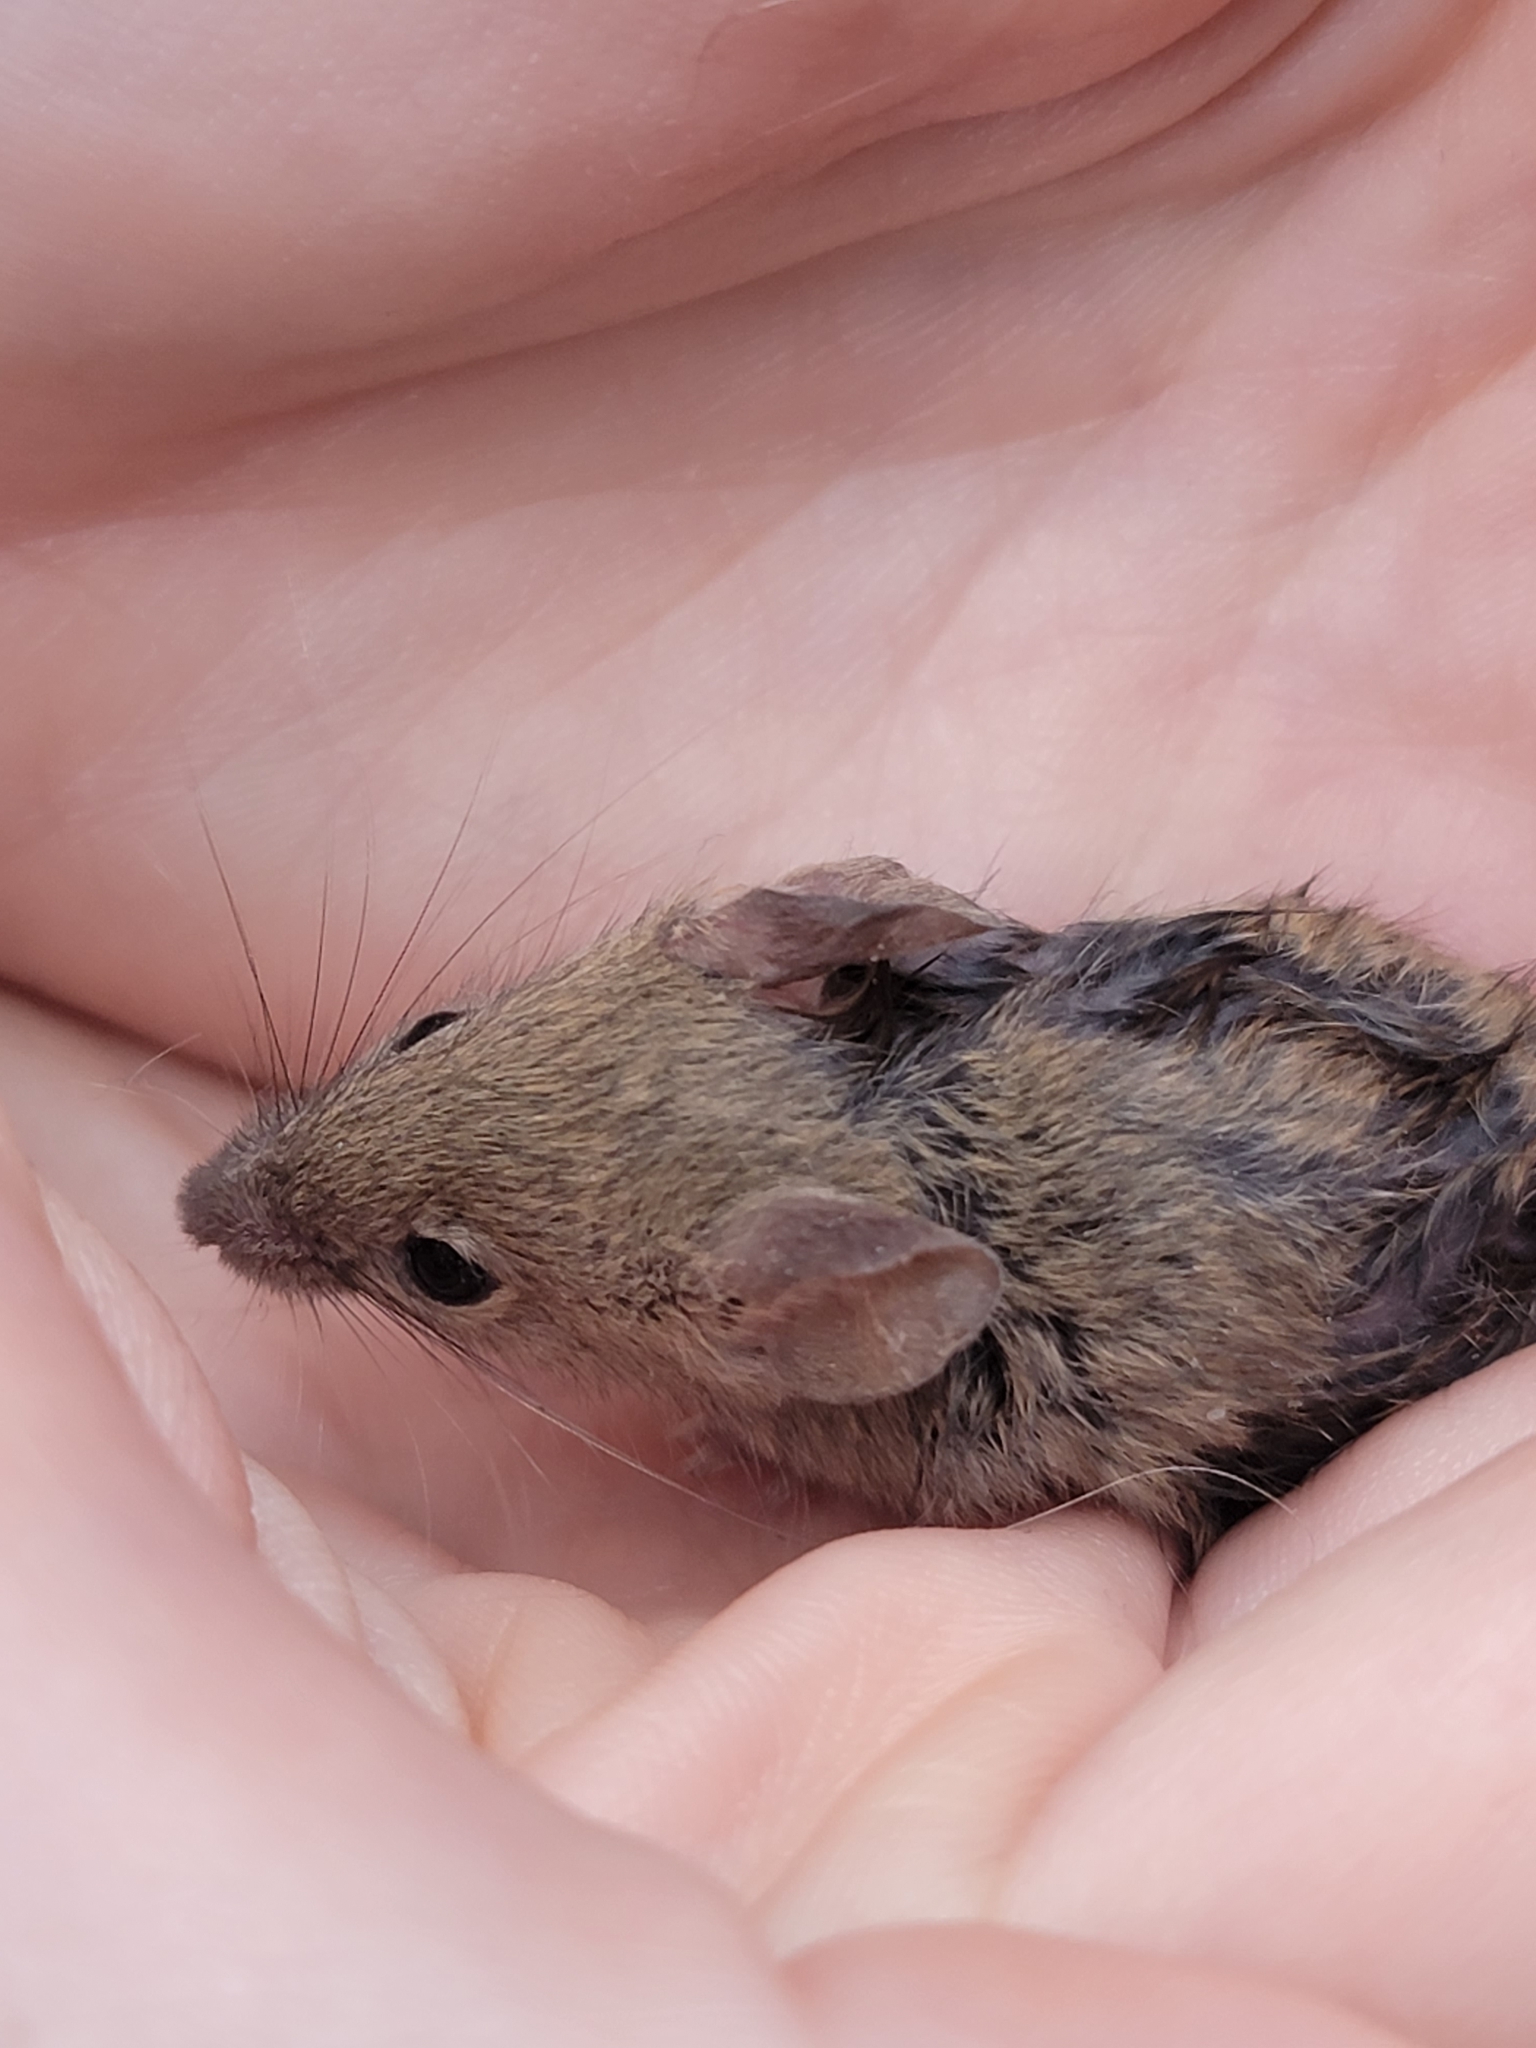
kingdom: Animalia
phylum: Chordata
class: Mammalia
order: Rodentia
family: Muridae
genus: Mus
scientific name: Mus musculus
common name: House mouse
